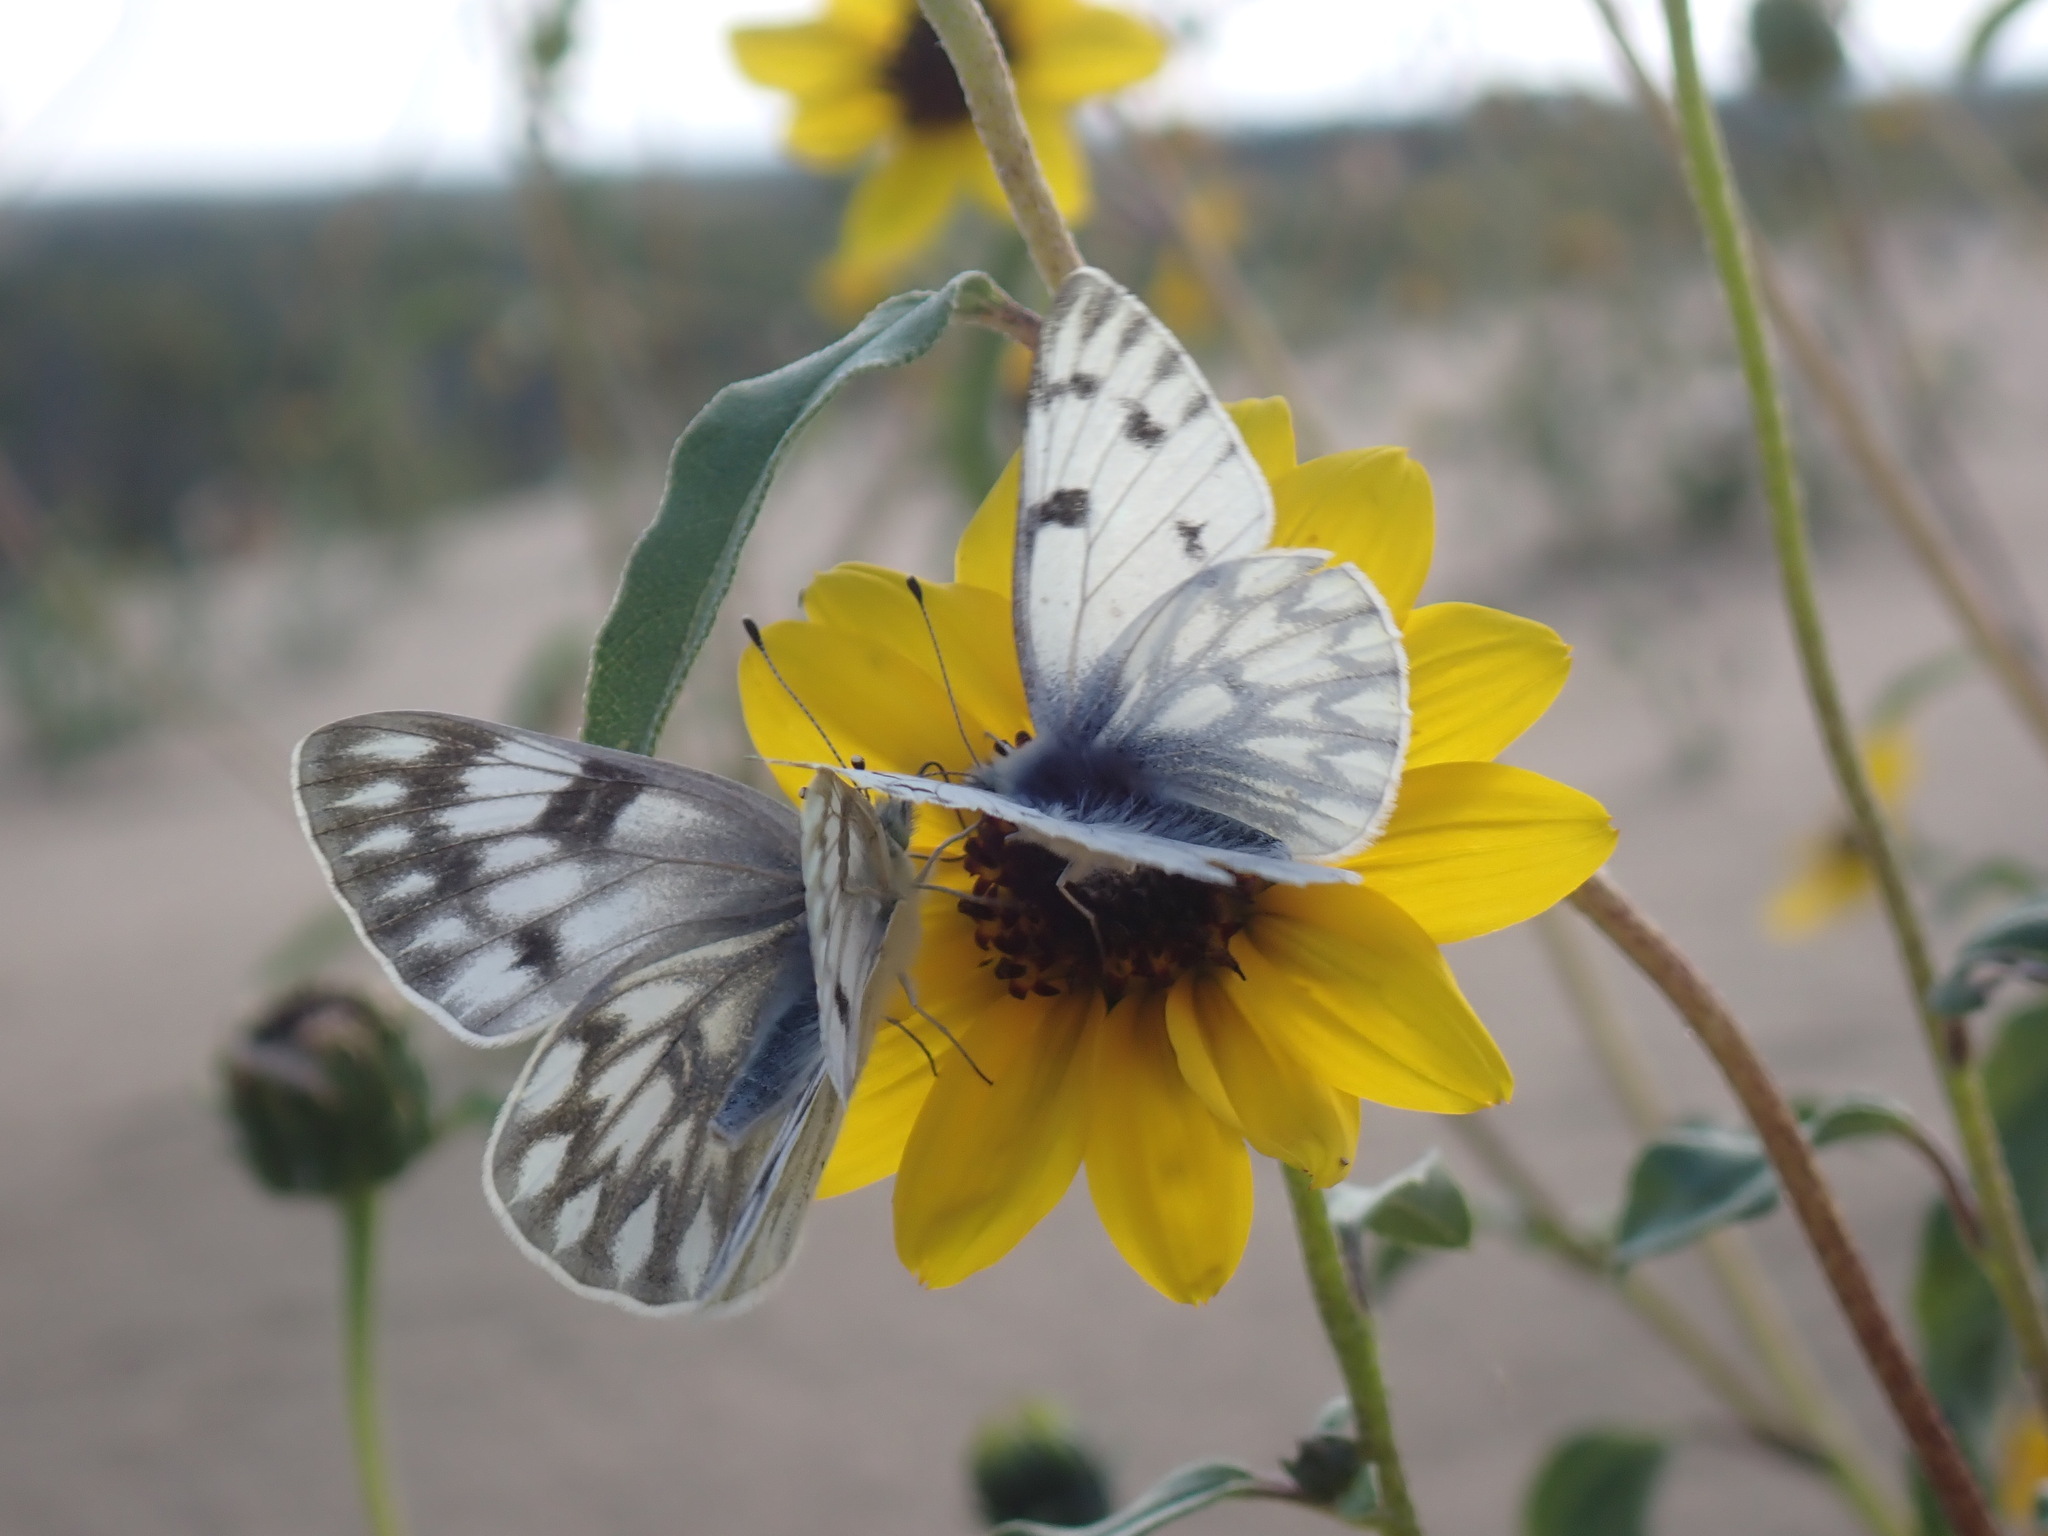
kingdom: Animalia
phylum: Arthropoda
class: Insecta
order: Lepidoptera
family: Pieridae
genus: Pontia
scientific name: Pontia occidentalis
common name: Western white
